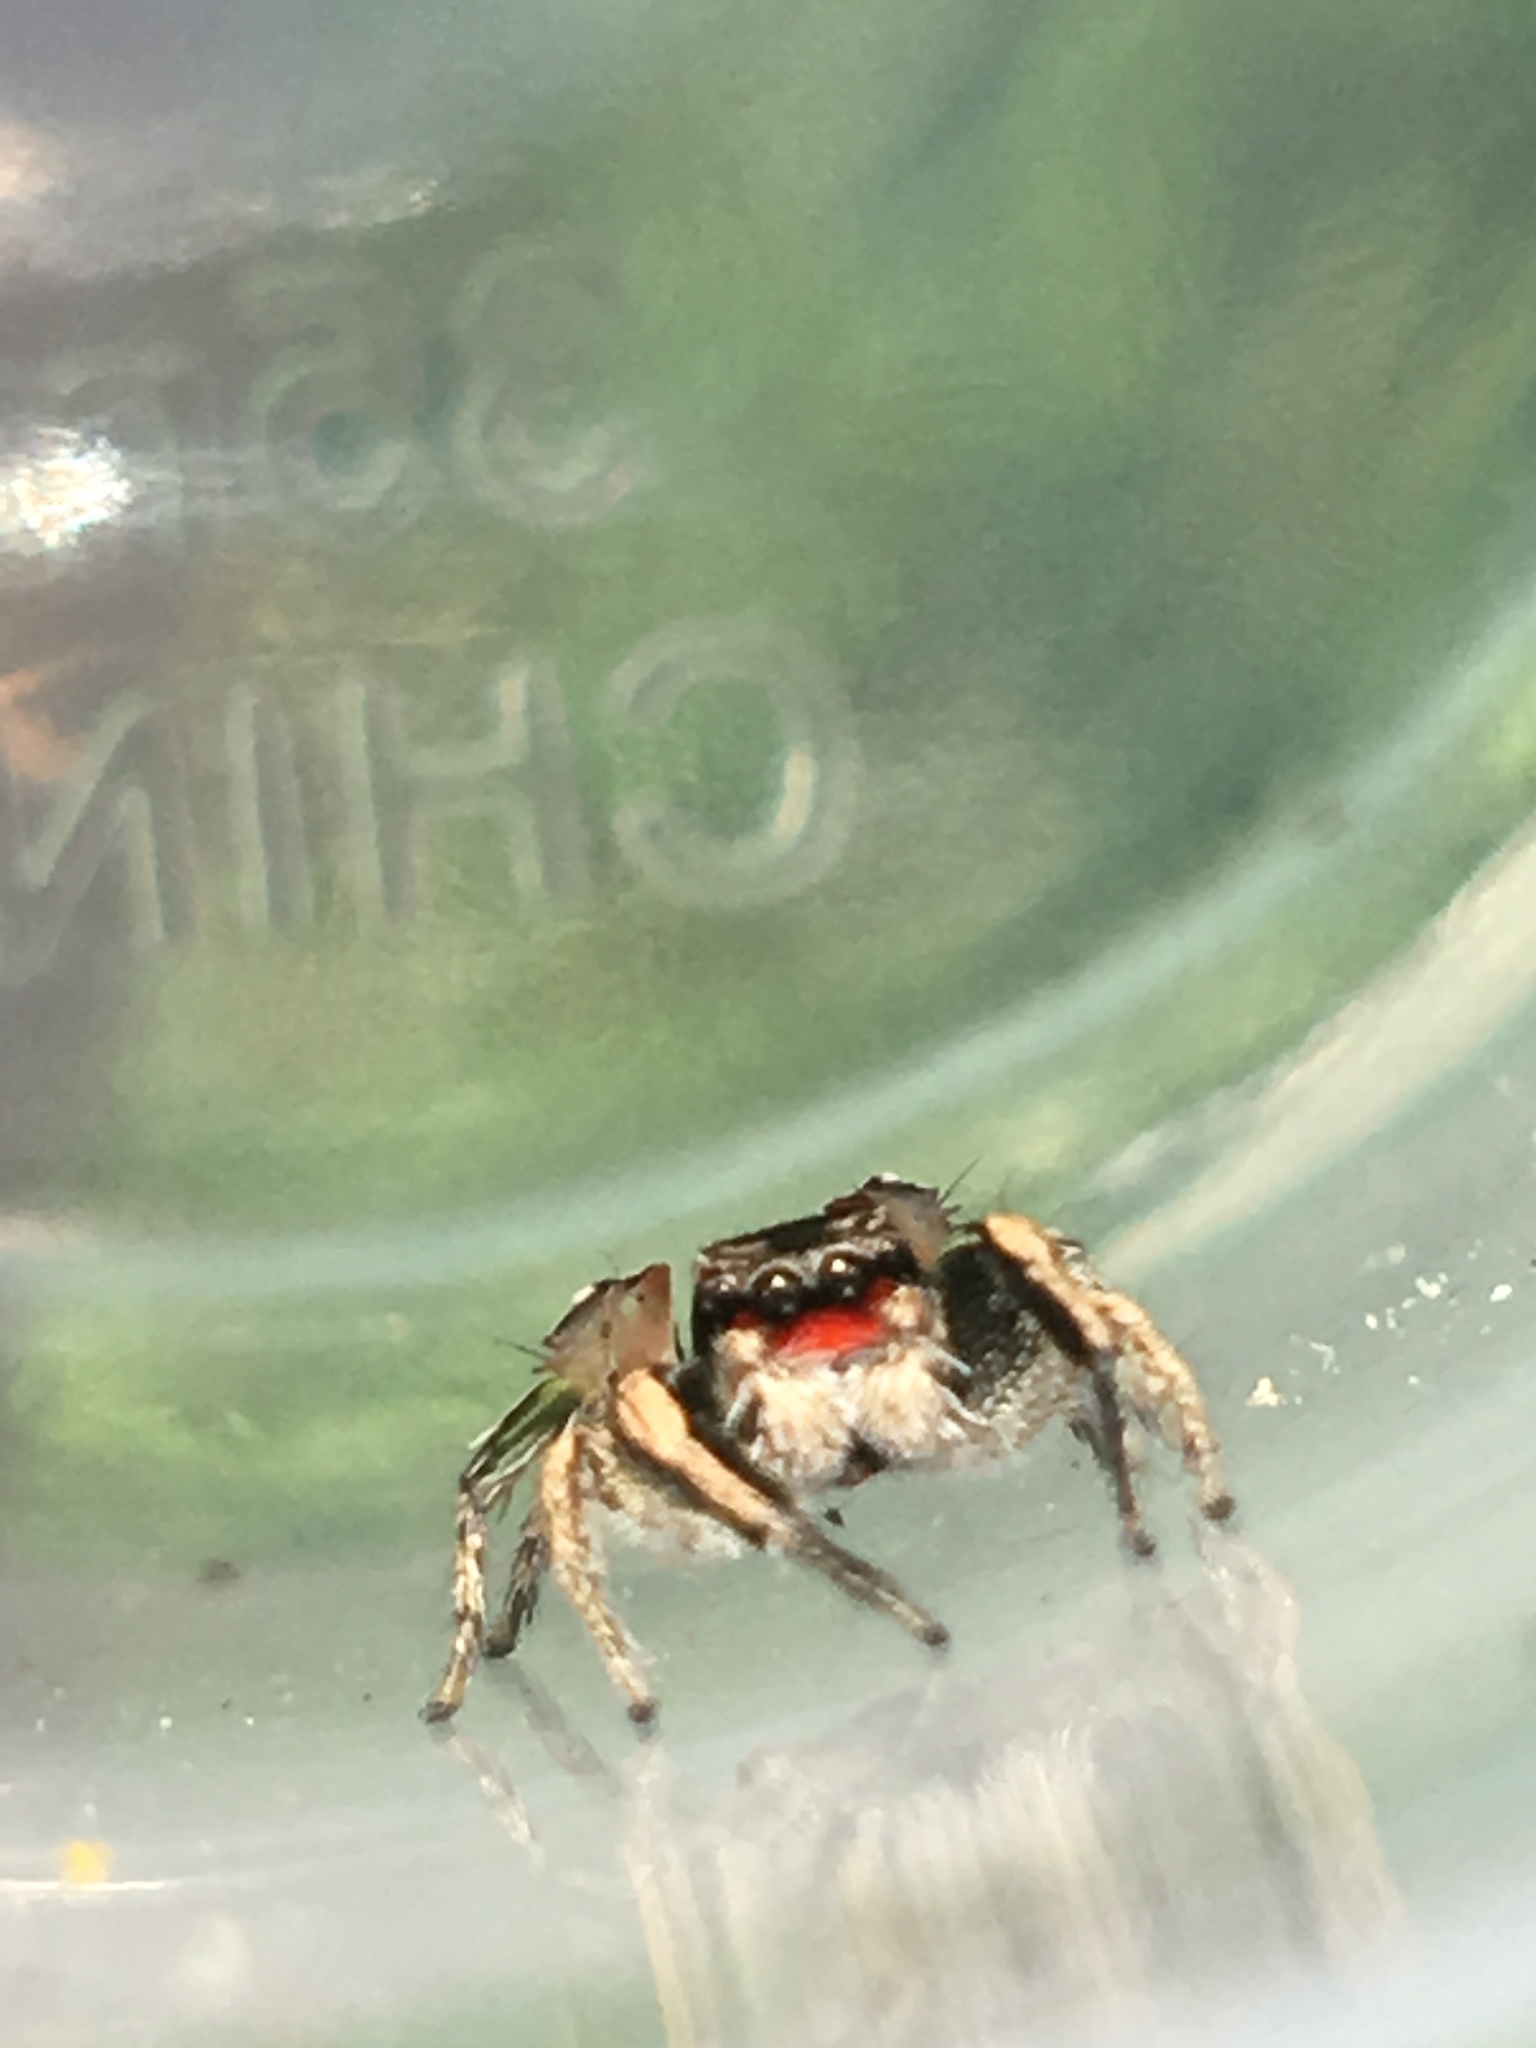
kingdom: Animalia
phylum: Arthropoda
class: Arachnida
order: Araneae
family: Salticidae
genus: Habronattus
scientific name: Habronattus coecatus
